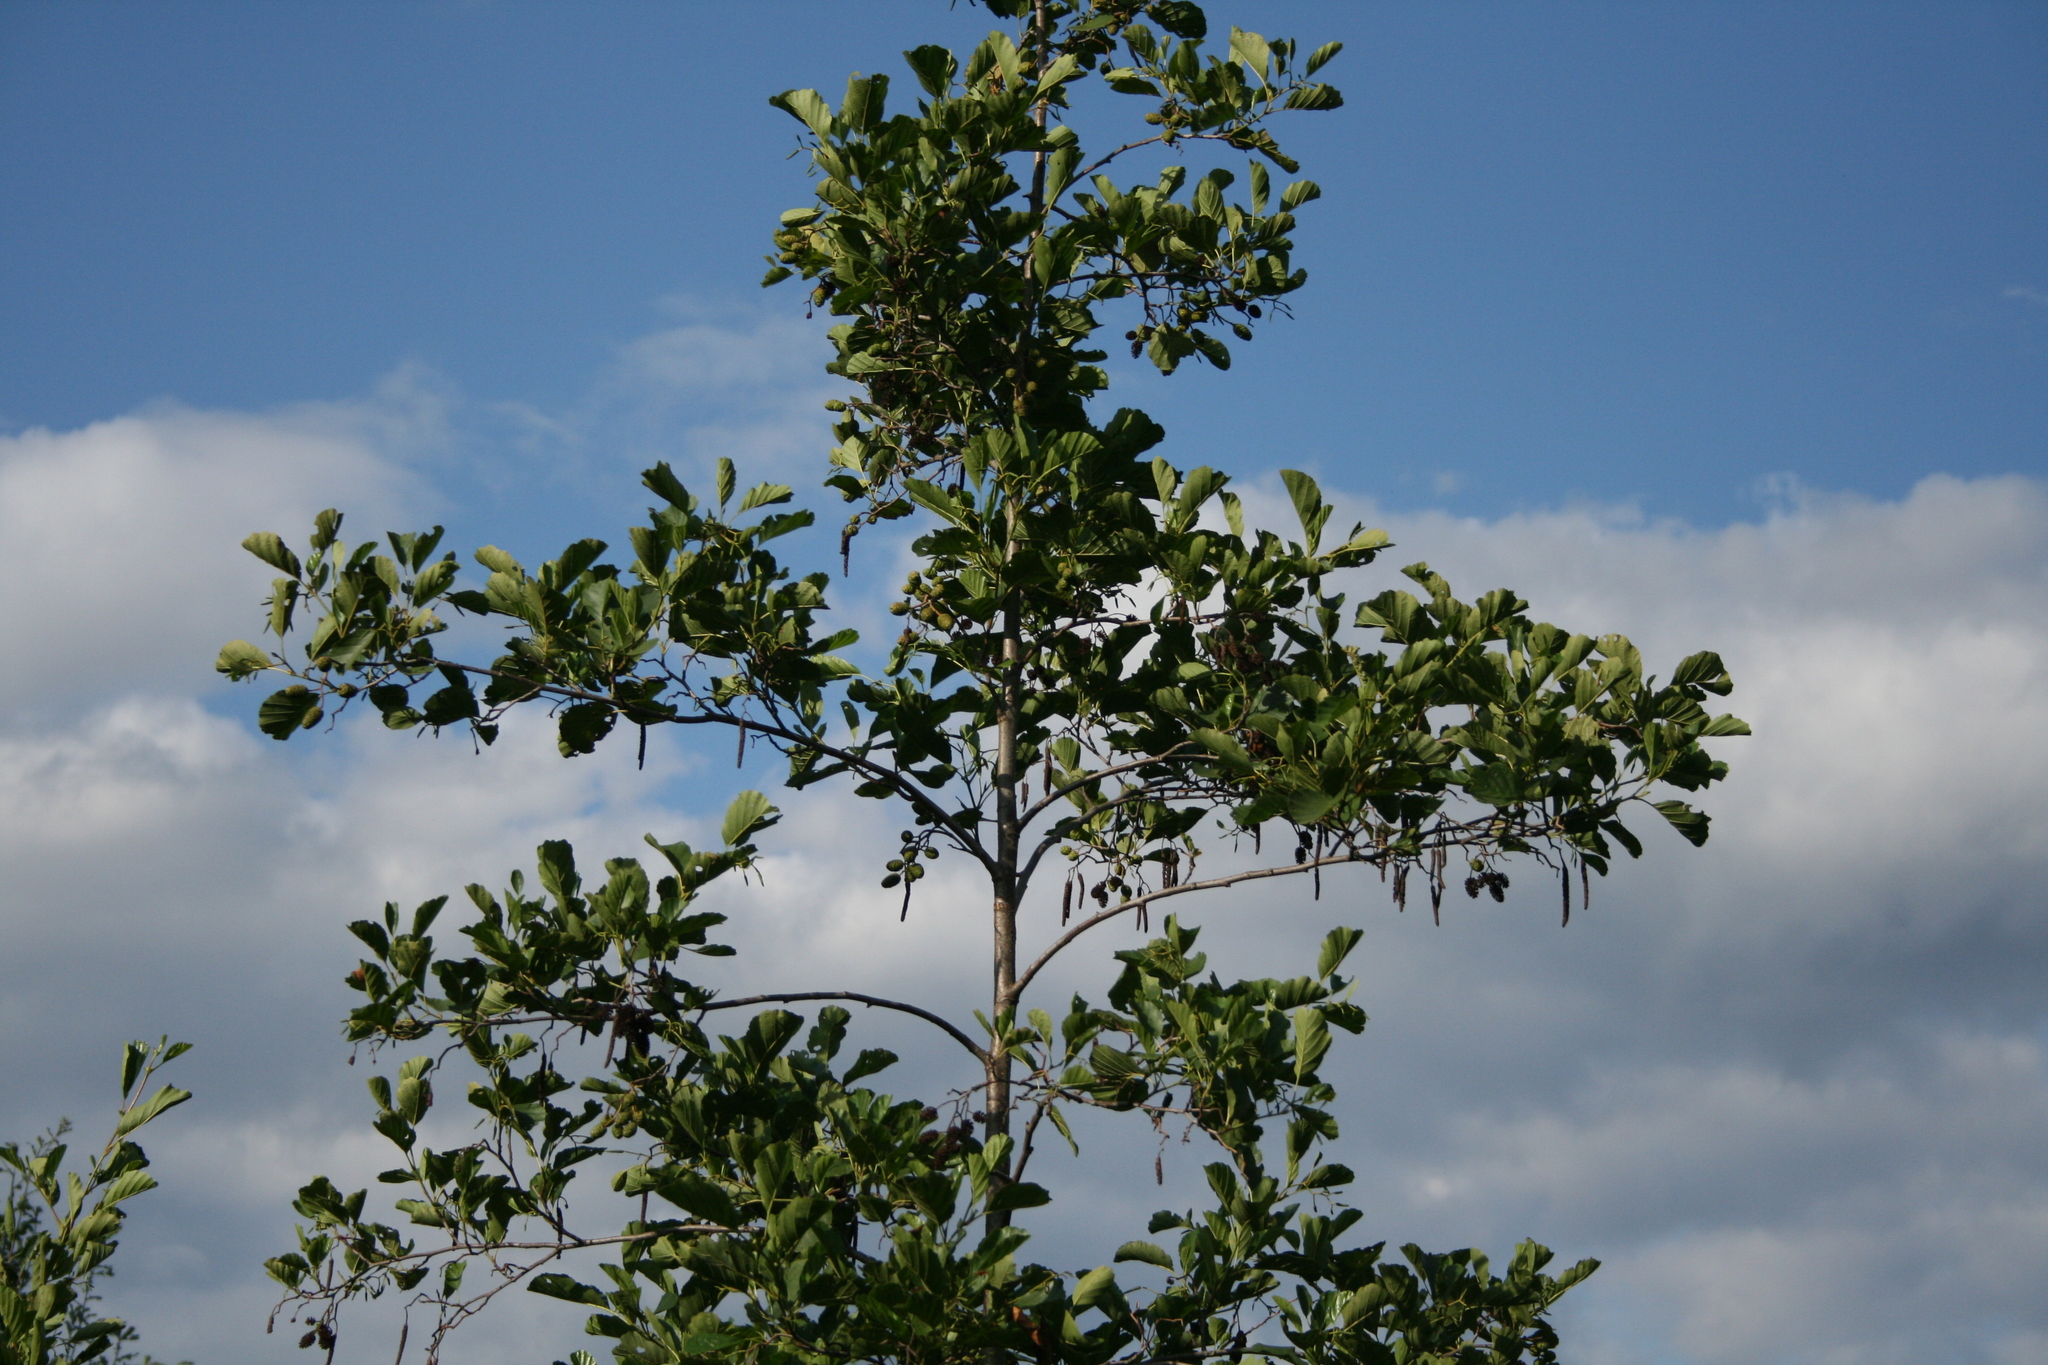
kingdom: Plantae
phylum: Tracheophyta
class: Magnoliopsida
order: Fagales
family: Betulaceae
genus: Alnus
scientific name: Alnus glutinosa
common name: Black alder
